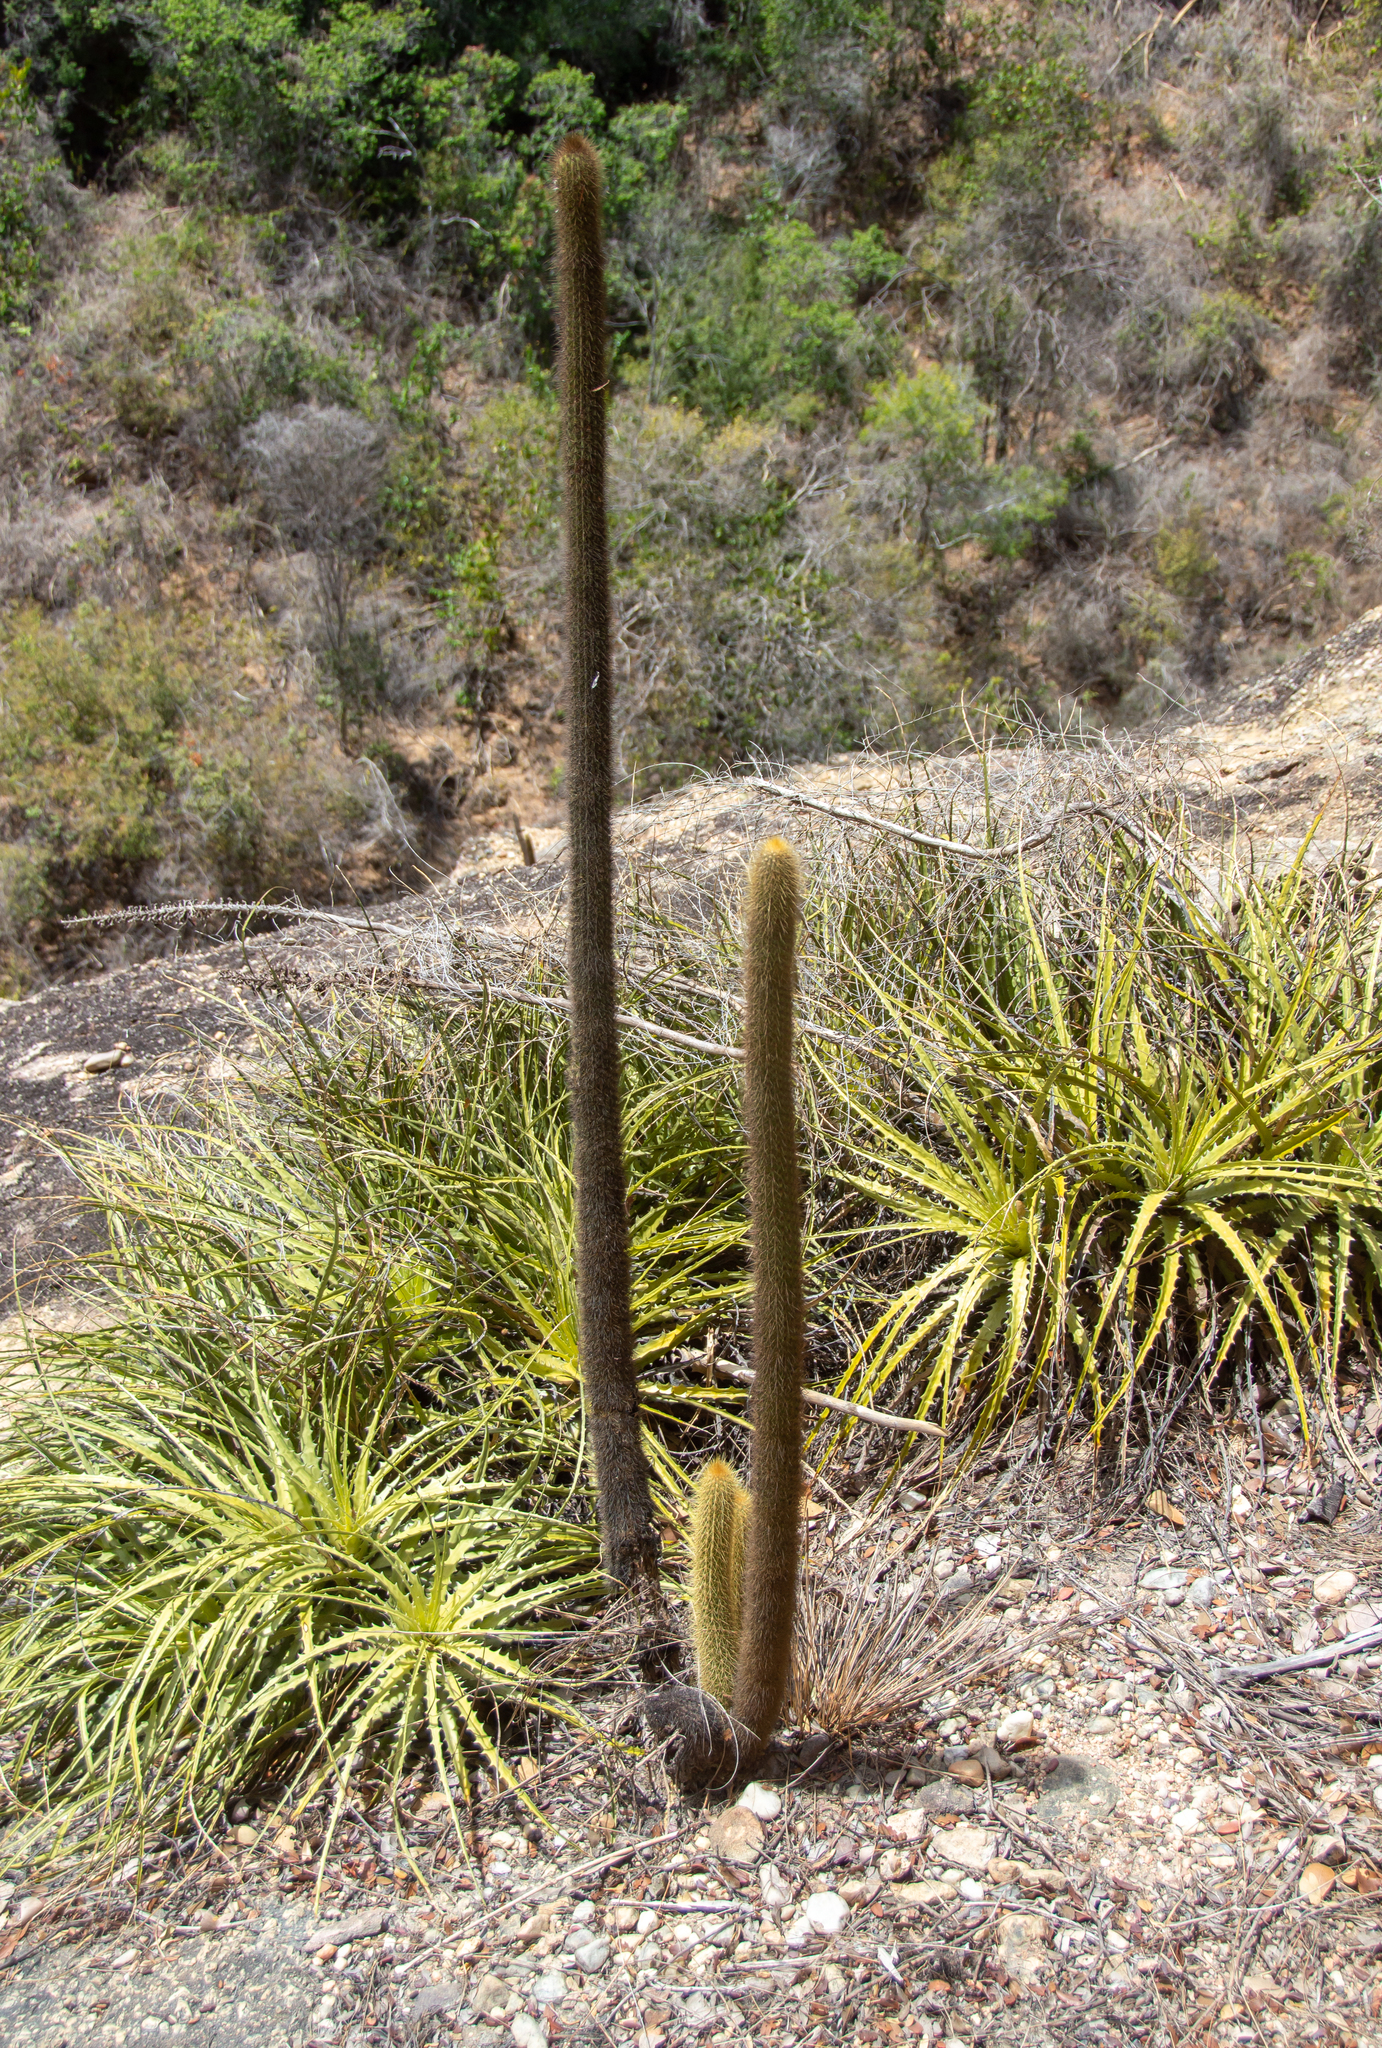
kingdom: Plantae
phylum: Tracheophyta
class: Magnoliopsida
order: Caryophyllales
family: Cactaceae
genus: Pilosocereus
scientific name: Pilosocereus piauhyensis
